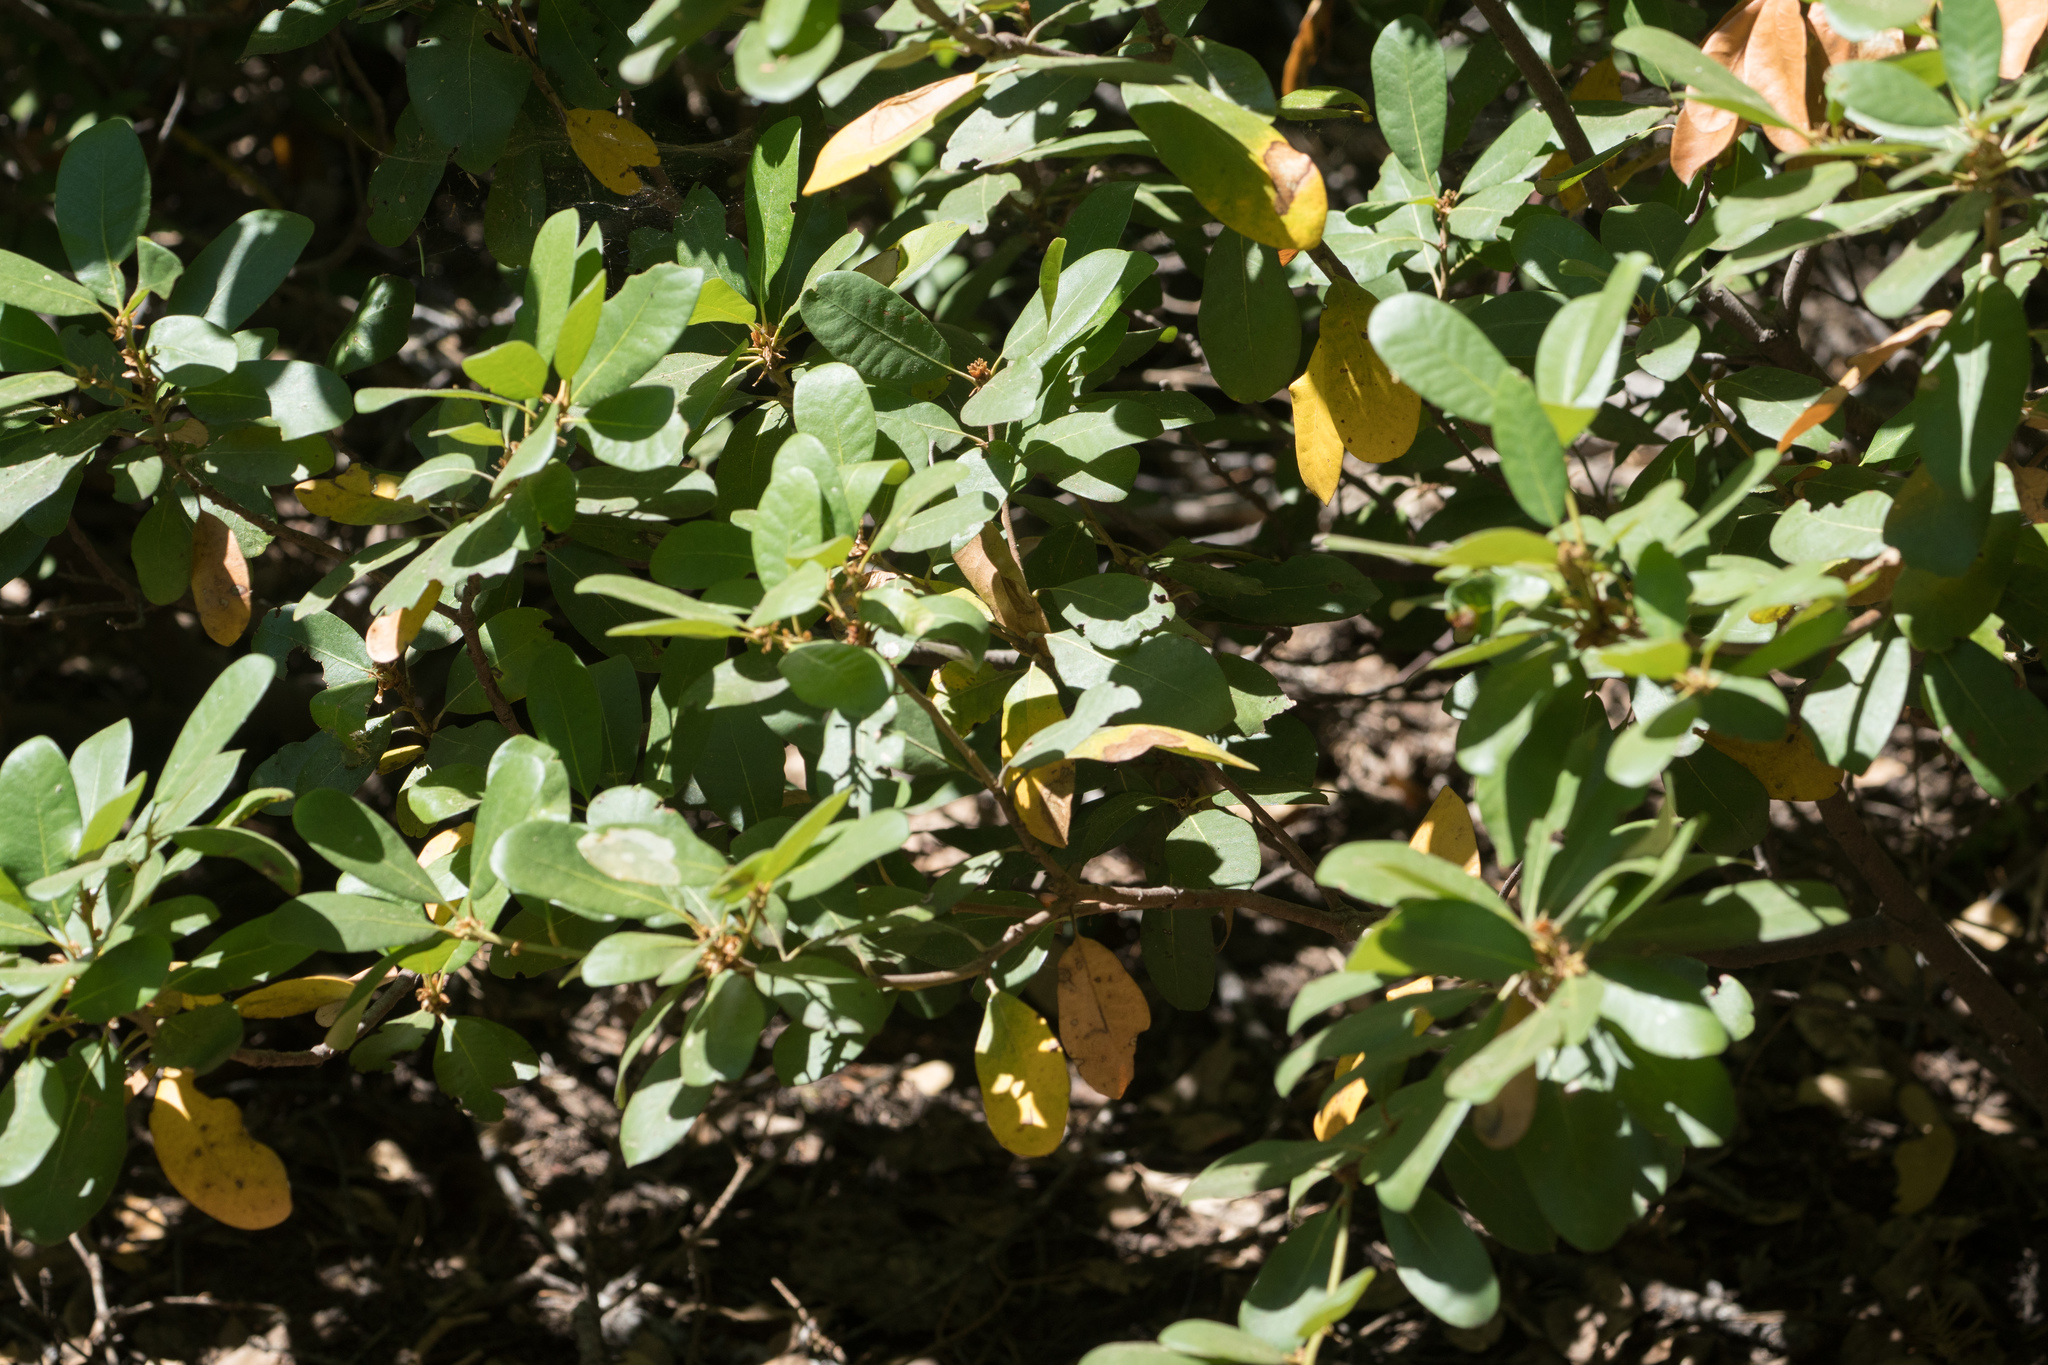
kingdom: Plantae
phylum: Tracheophyta
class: Magnoliopsida
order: Fagales
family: Fagaceae
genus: Chrysolepis
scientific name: Chrysolepis sempervirens
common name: Bush chinquapin
